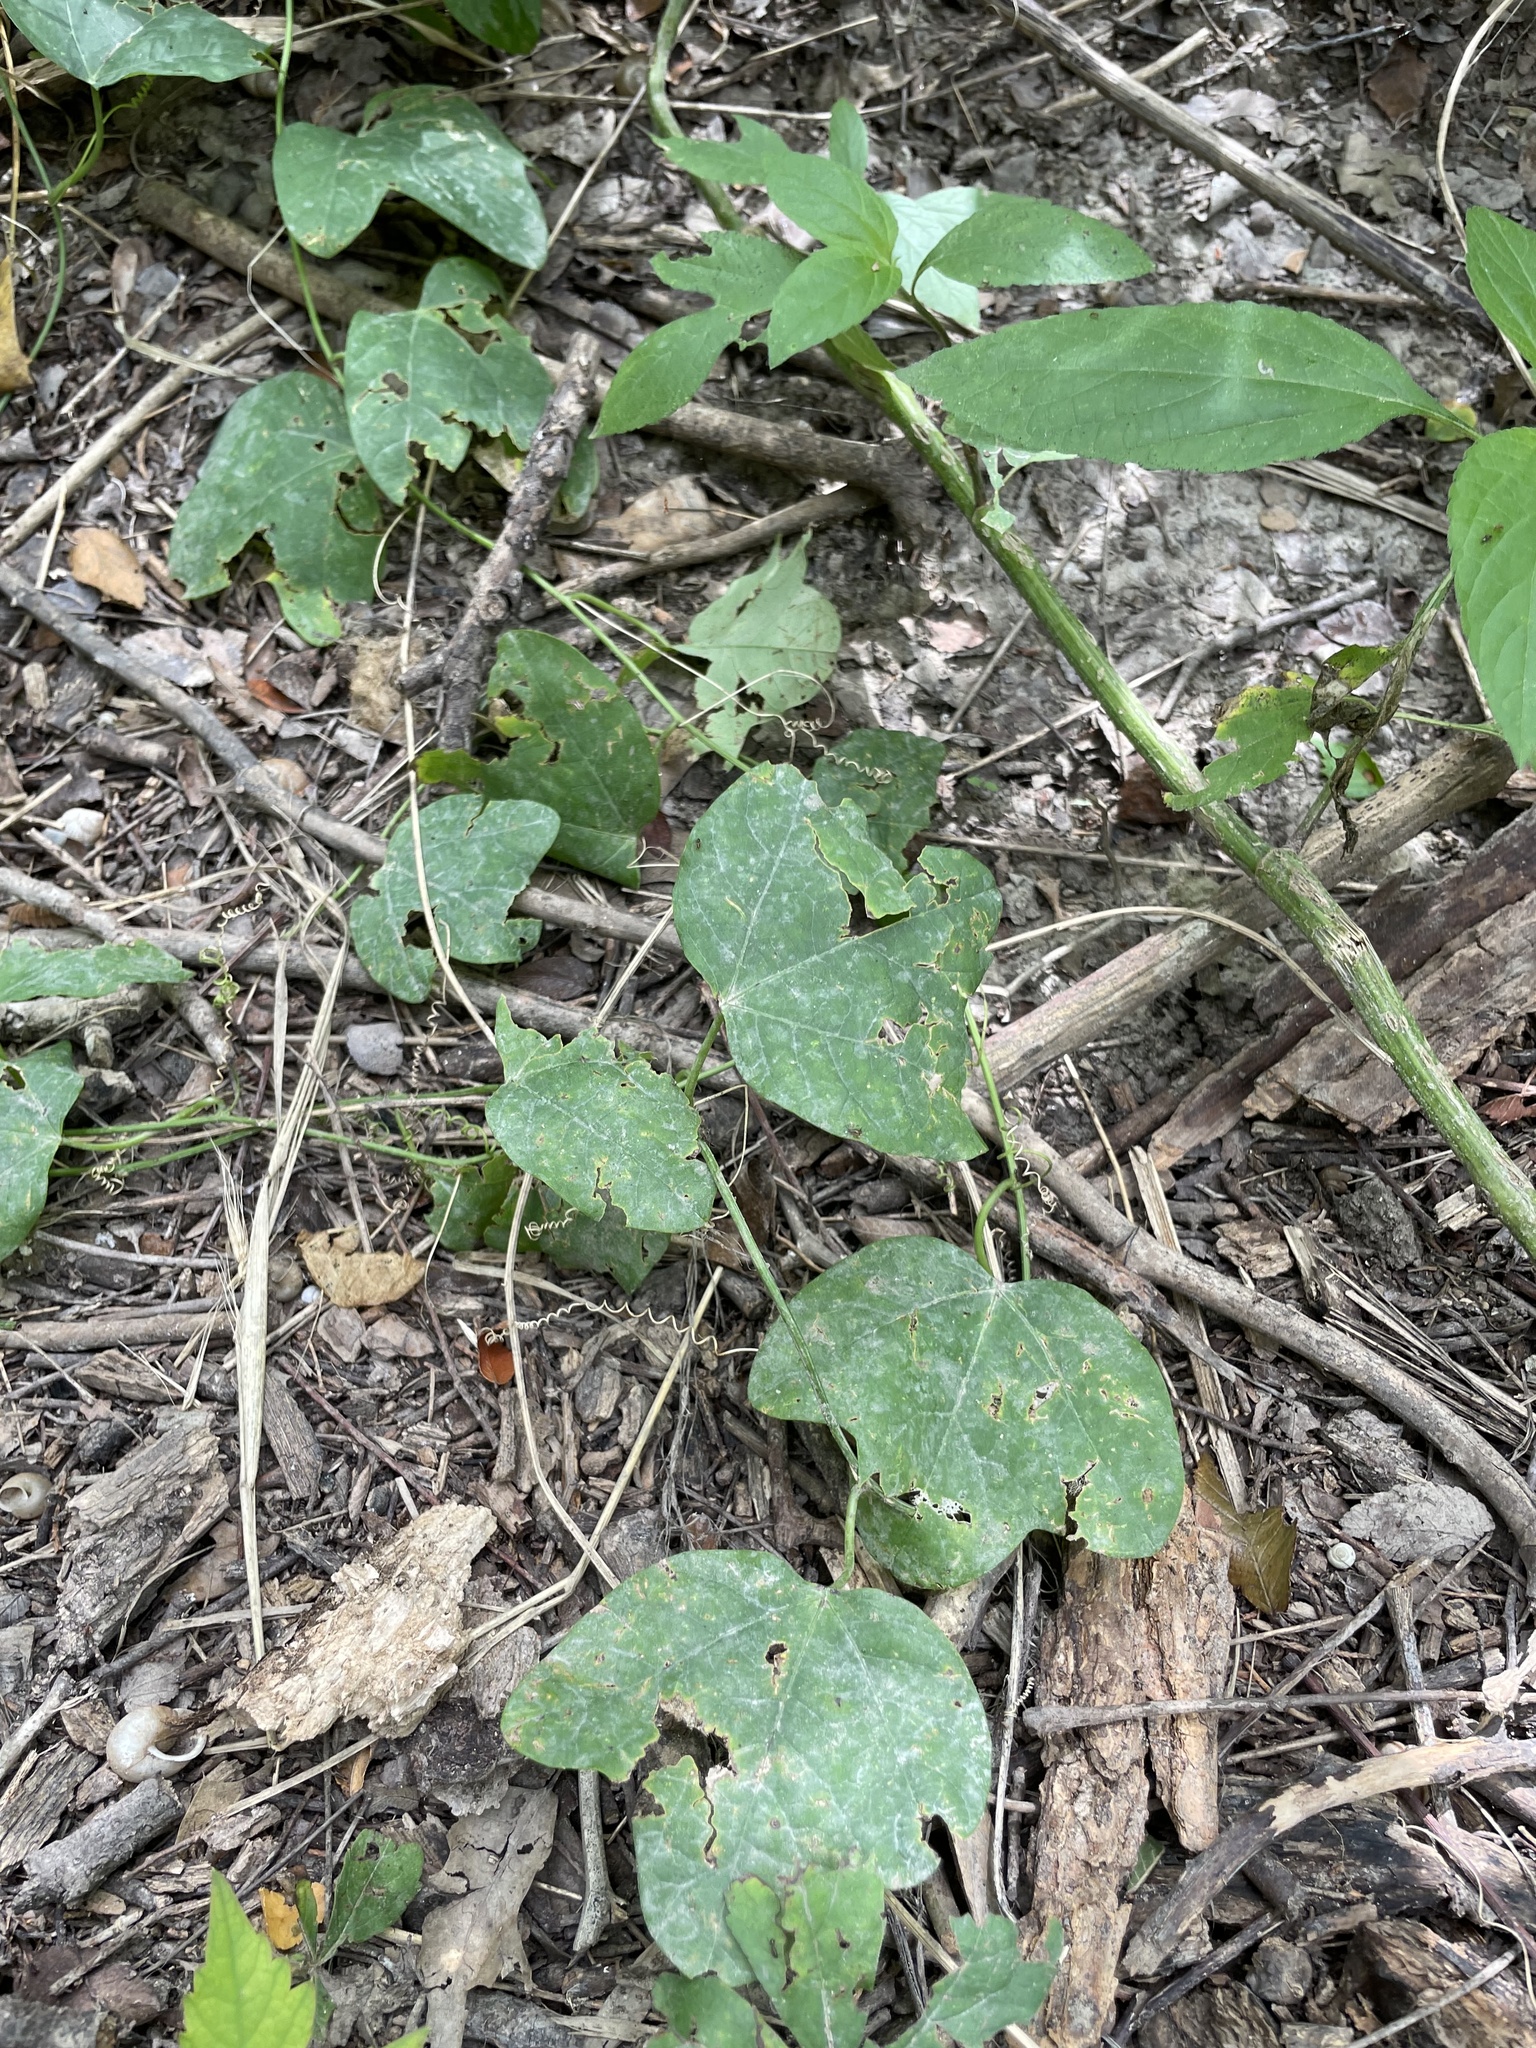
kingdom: Plantae
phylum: Tracheophyta
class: Magnoliopsida
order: Malpighiales
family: Passifloraceae
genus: Passiflora
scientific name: Passiflora lutea
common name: Yellow passionflower
